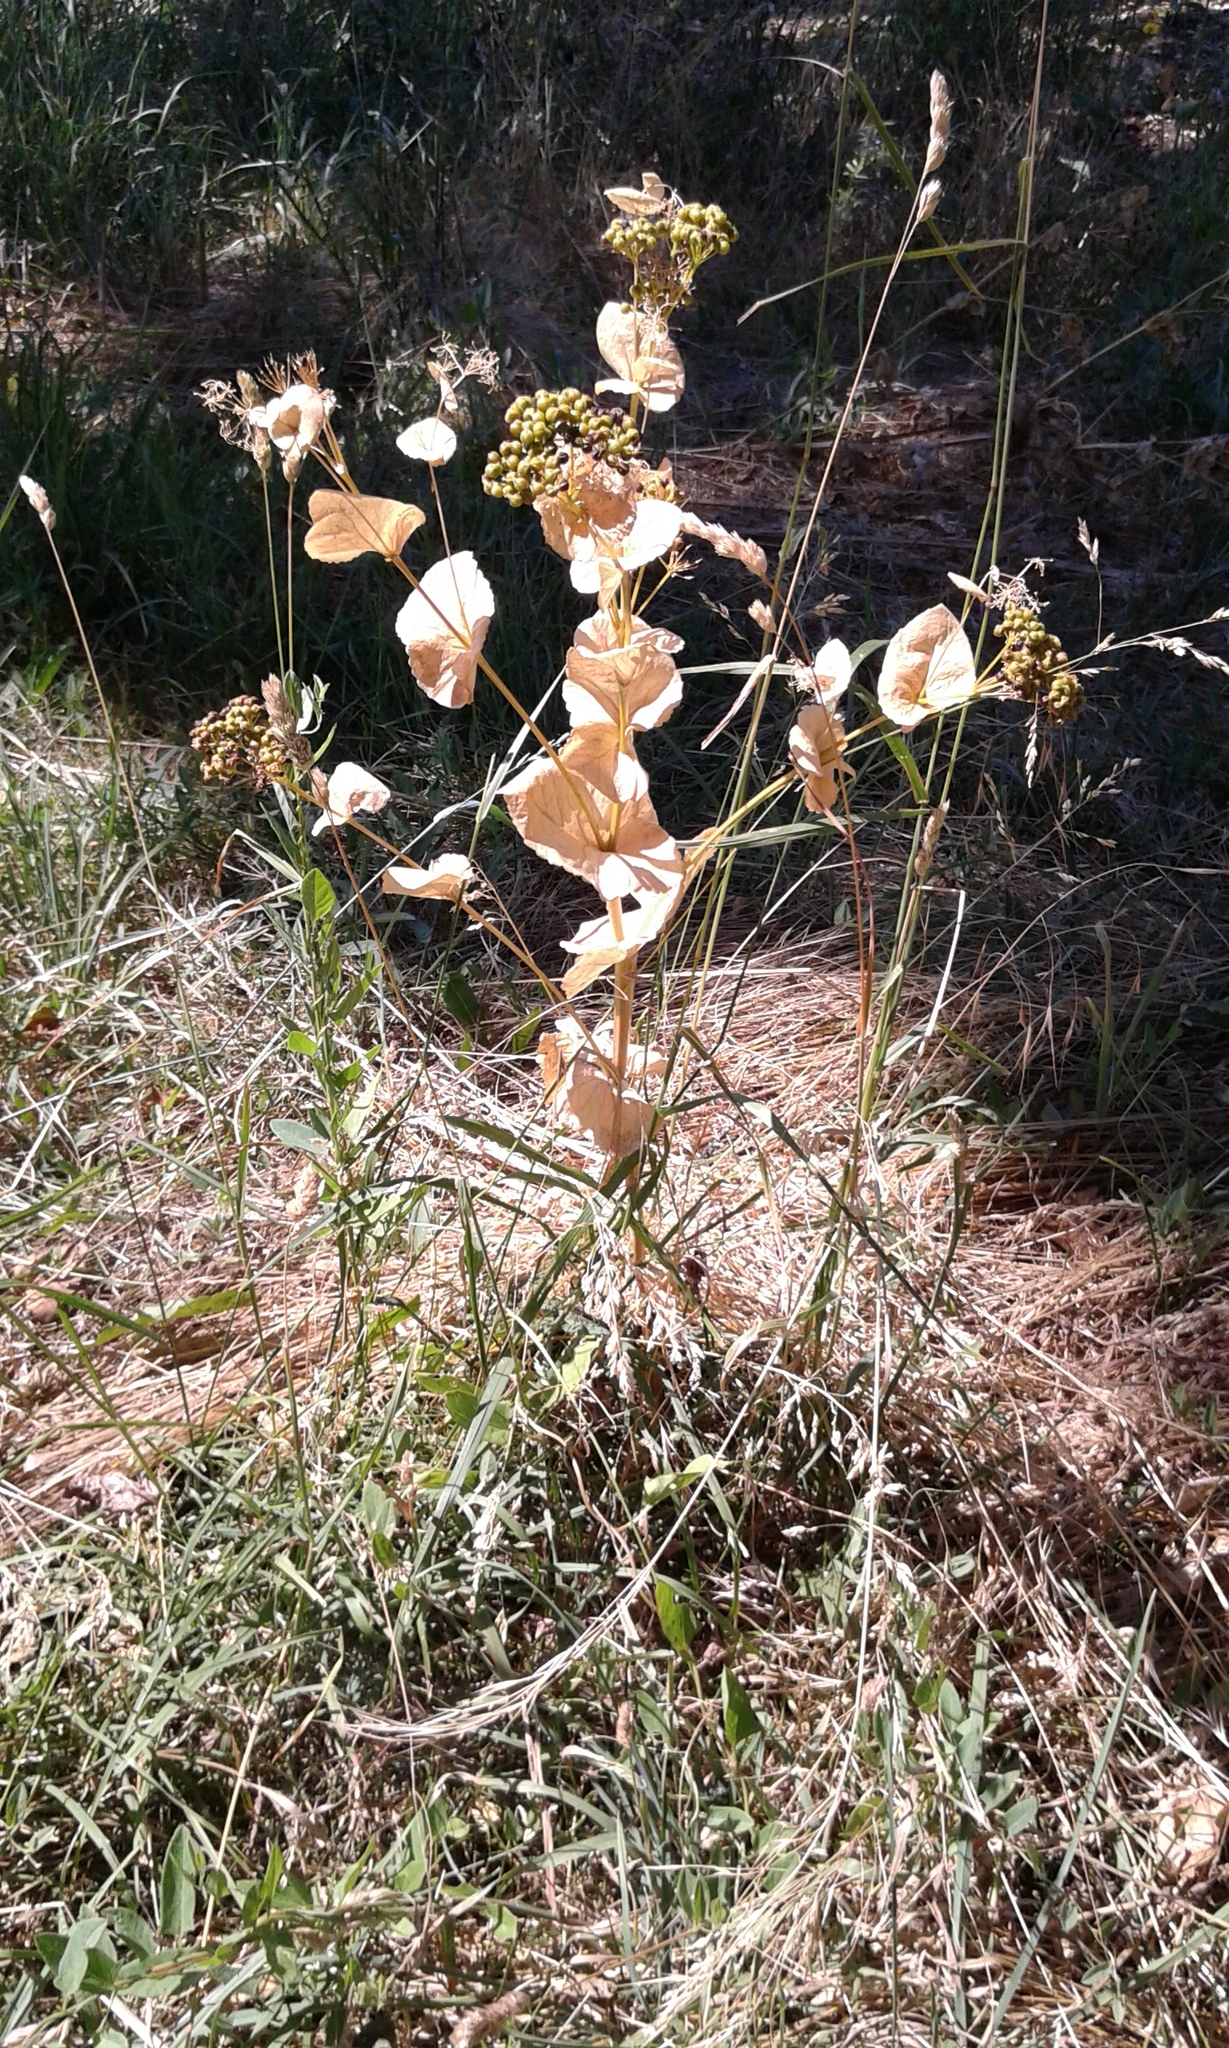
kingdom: Plantae
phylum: Tracheophyta
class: Magnoliopsida
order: Apiales
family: Apiaceae
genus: Smyrnium
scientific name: Smyrnium perfoliatum
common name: Perfoliate alexanders
